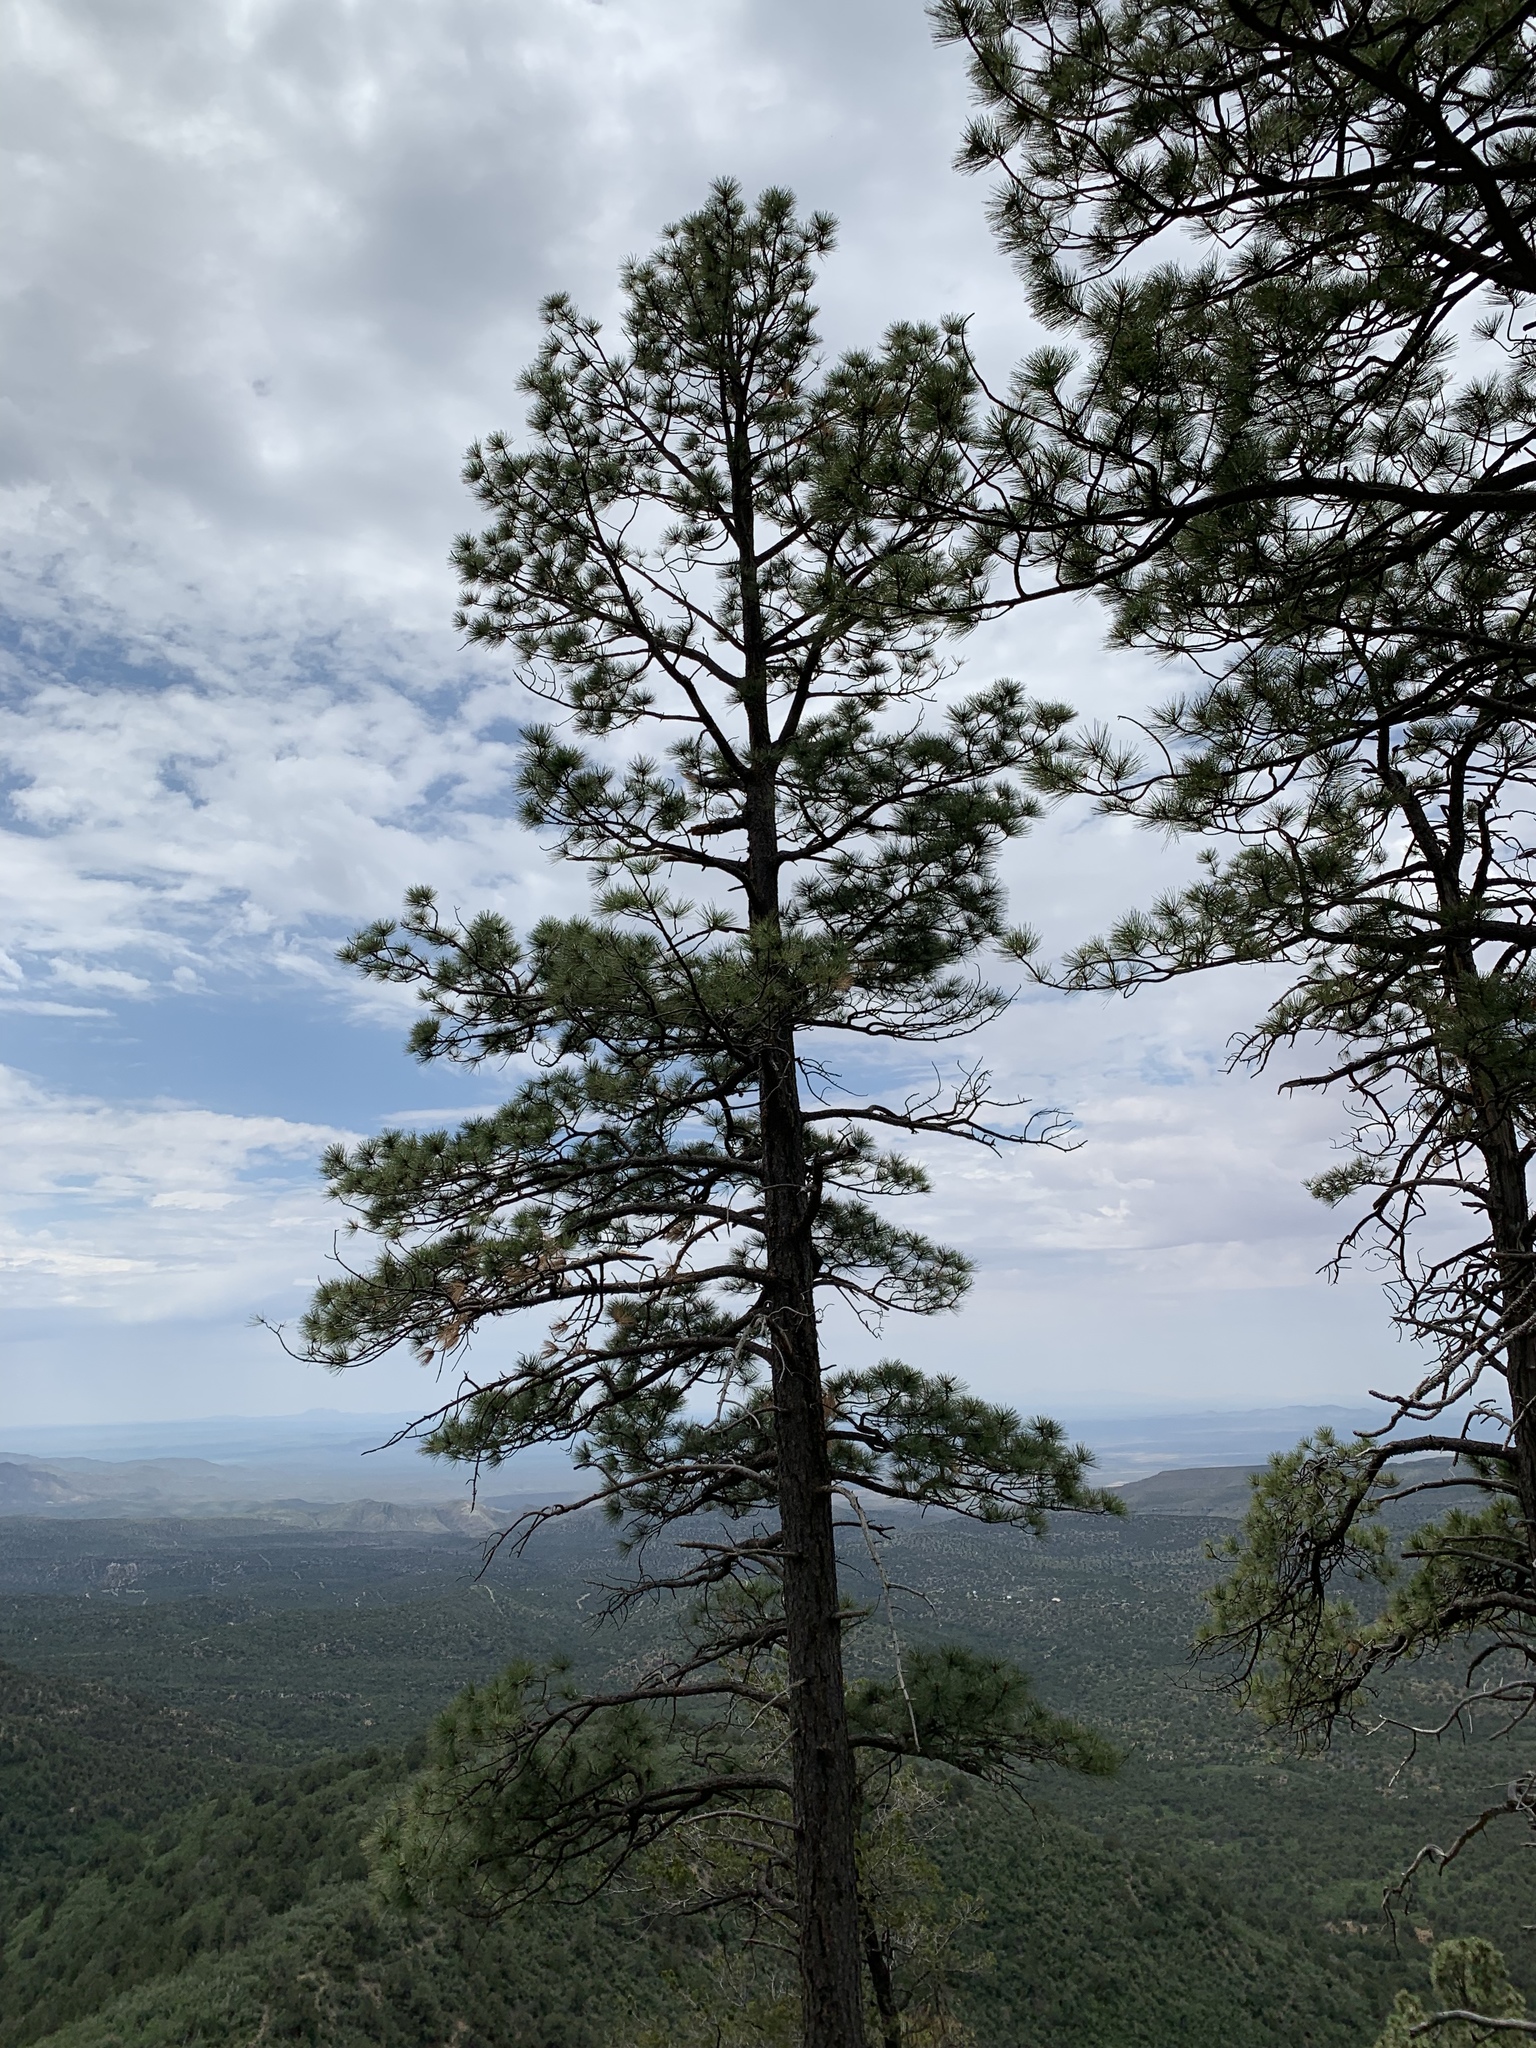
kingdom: Plantae
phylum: Tracheophyta
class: Pinopsida
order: Pinales
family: Pinaceae
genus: Pinus
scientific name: Pinus ponderosa
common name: Western yellow-pine
